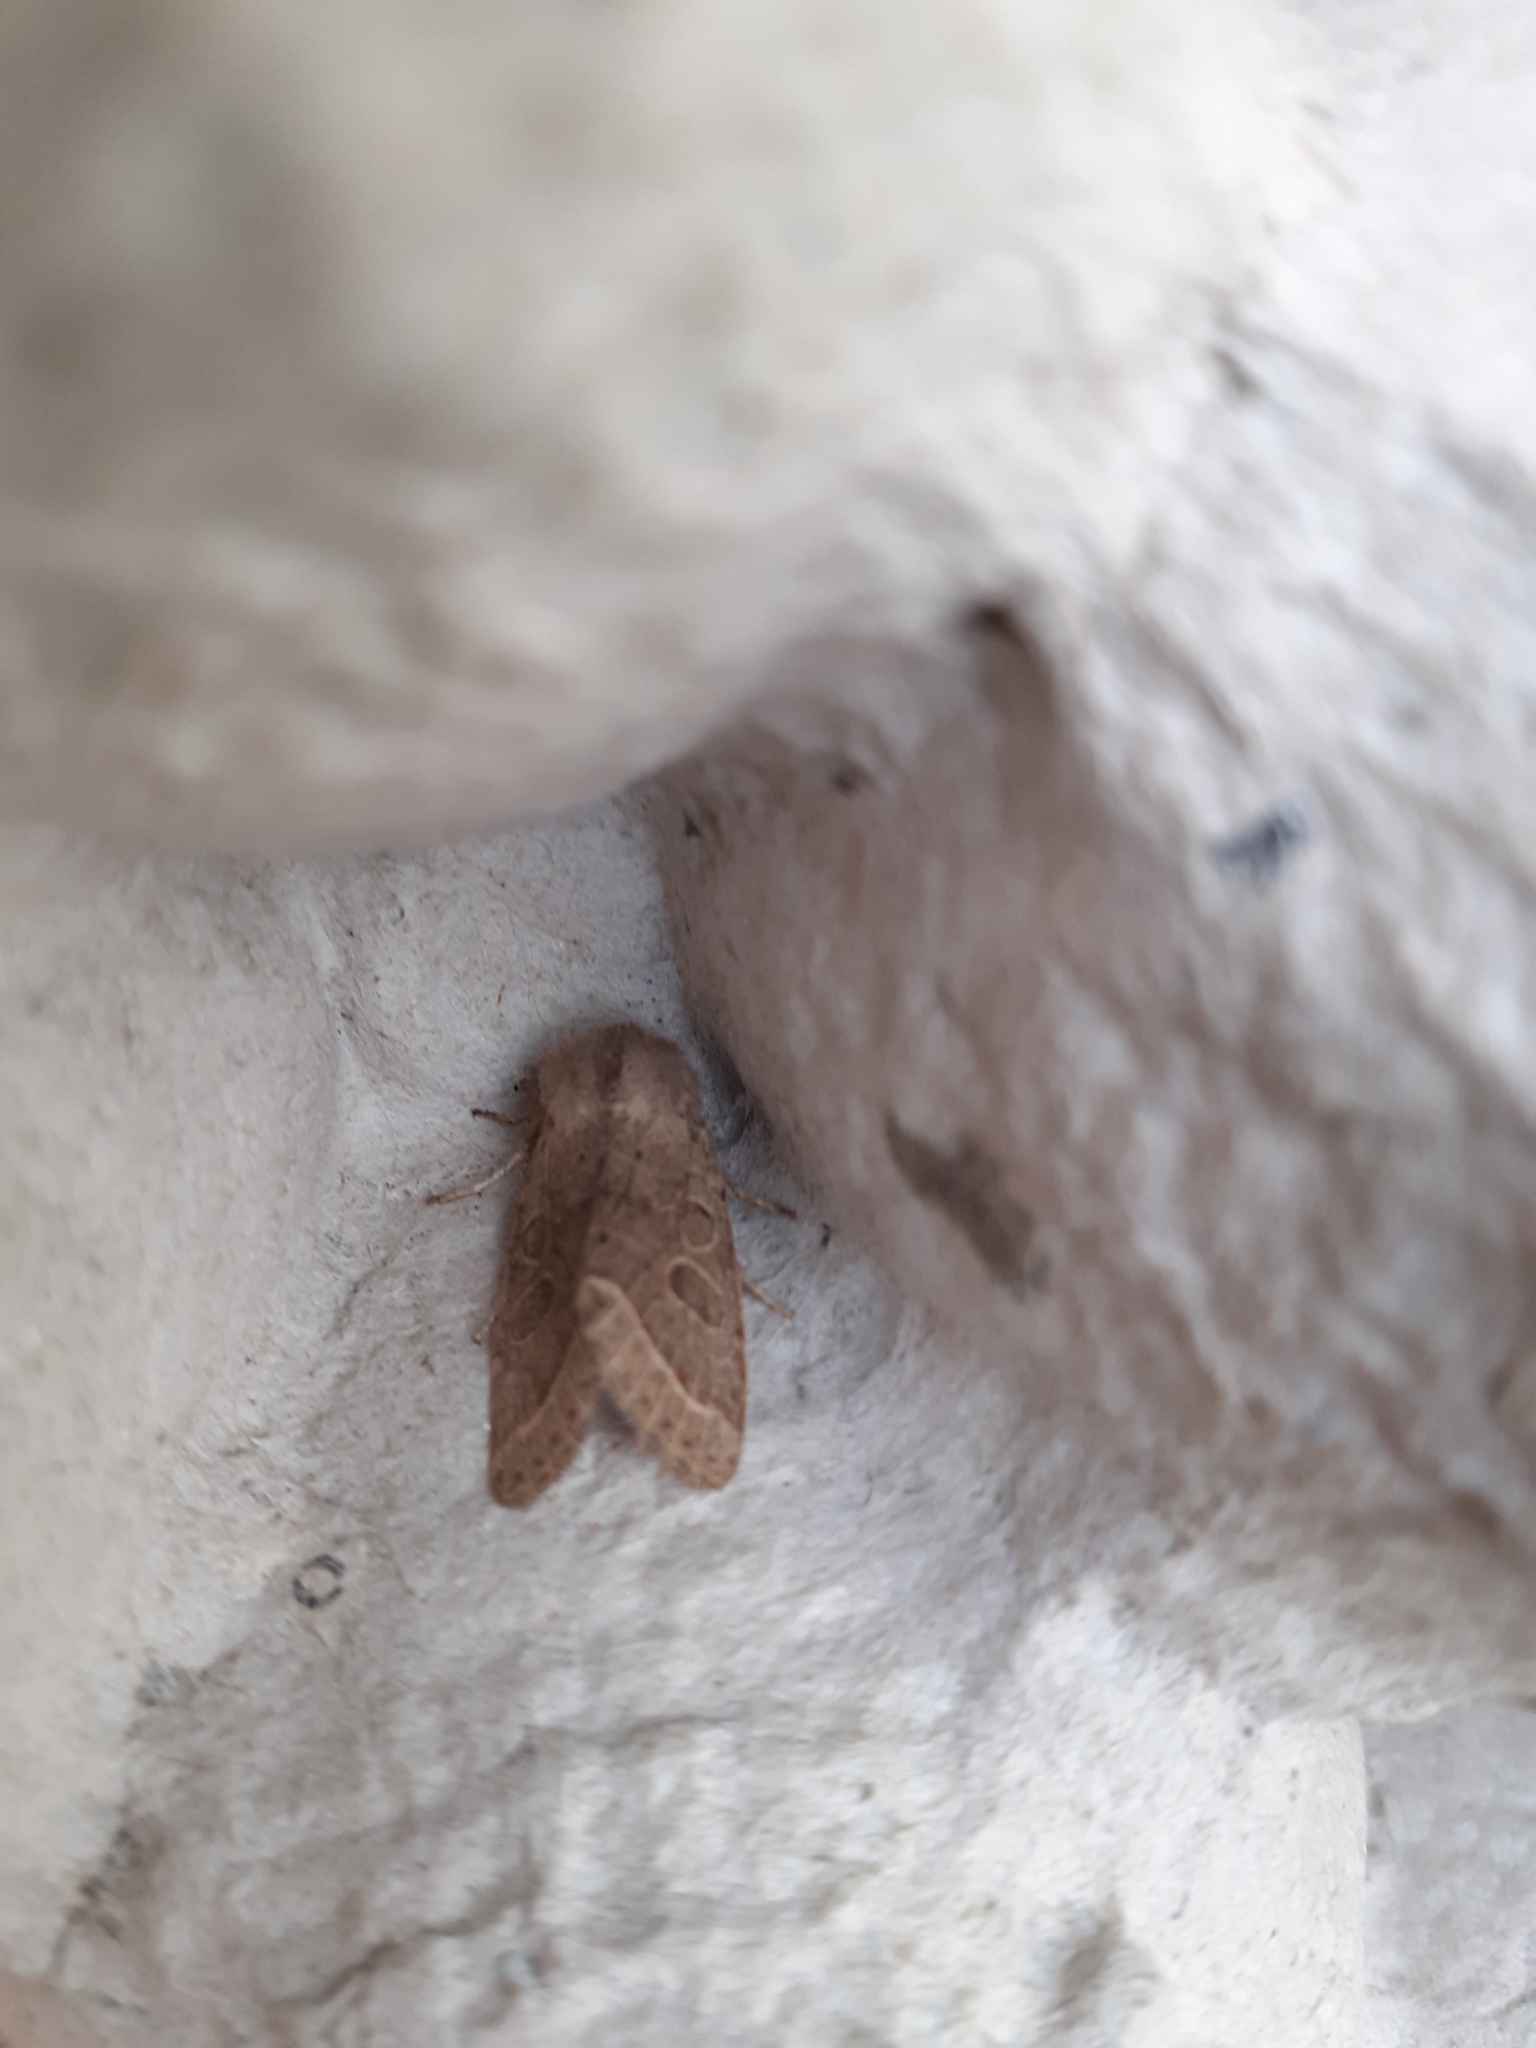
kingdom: Animalia
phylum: Arthropoda
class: Insecta
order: Lepidoptera
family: Noctuidae
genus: Orthosia
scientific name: Orthosia cerasi
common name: Common quaker
